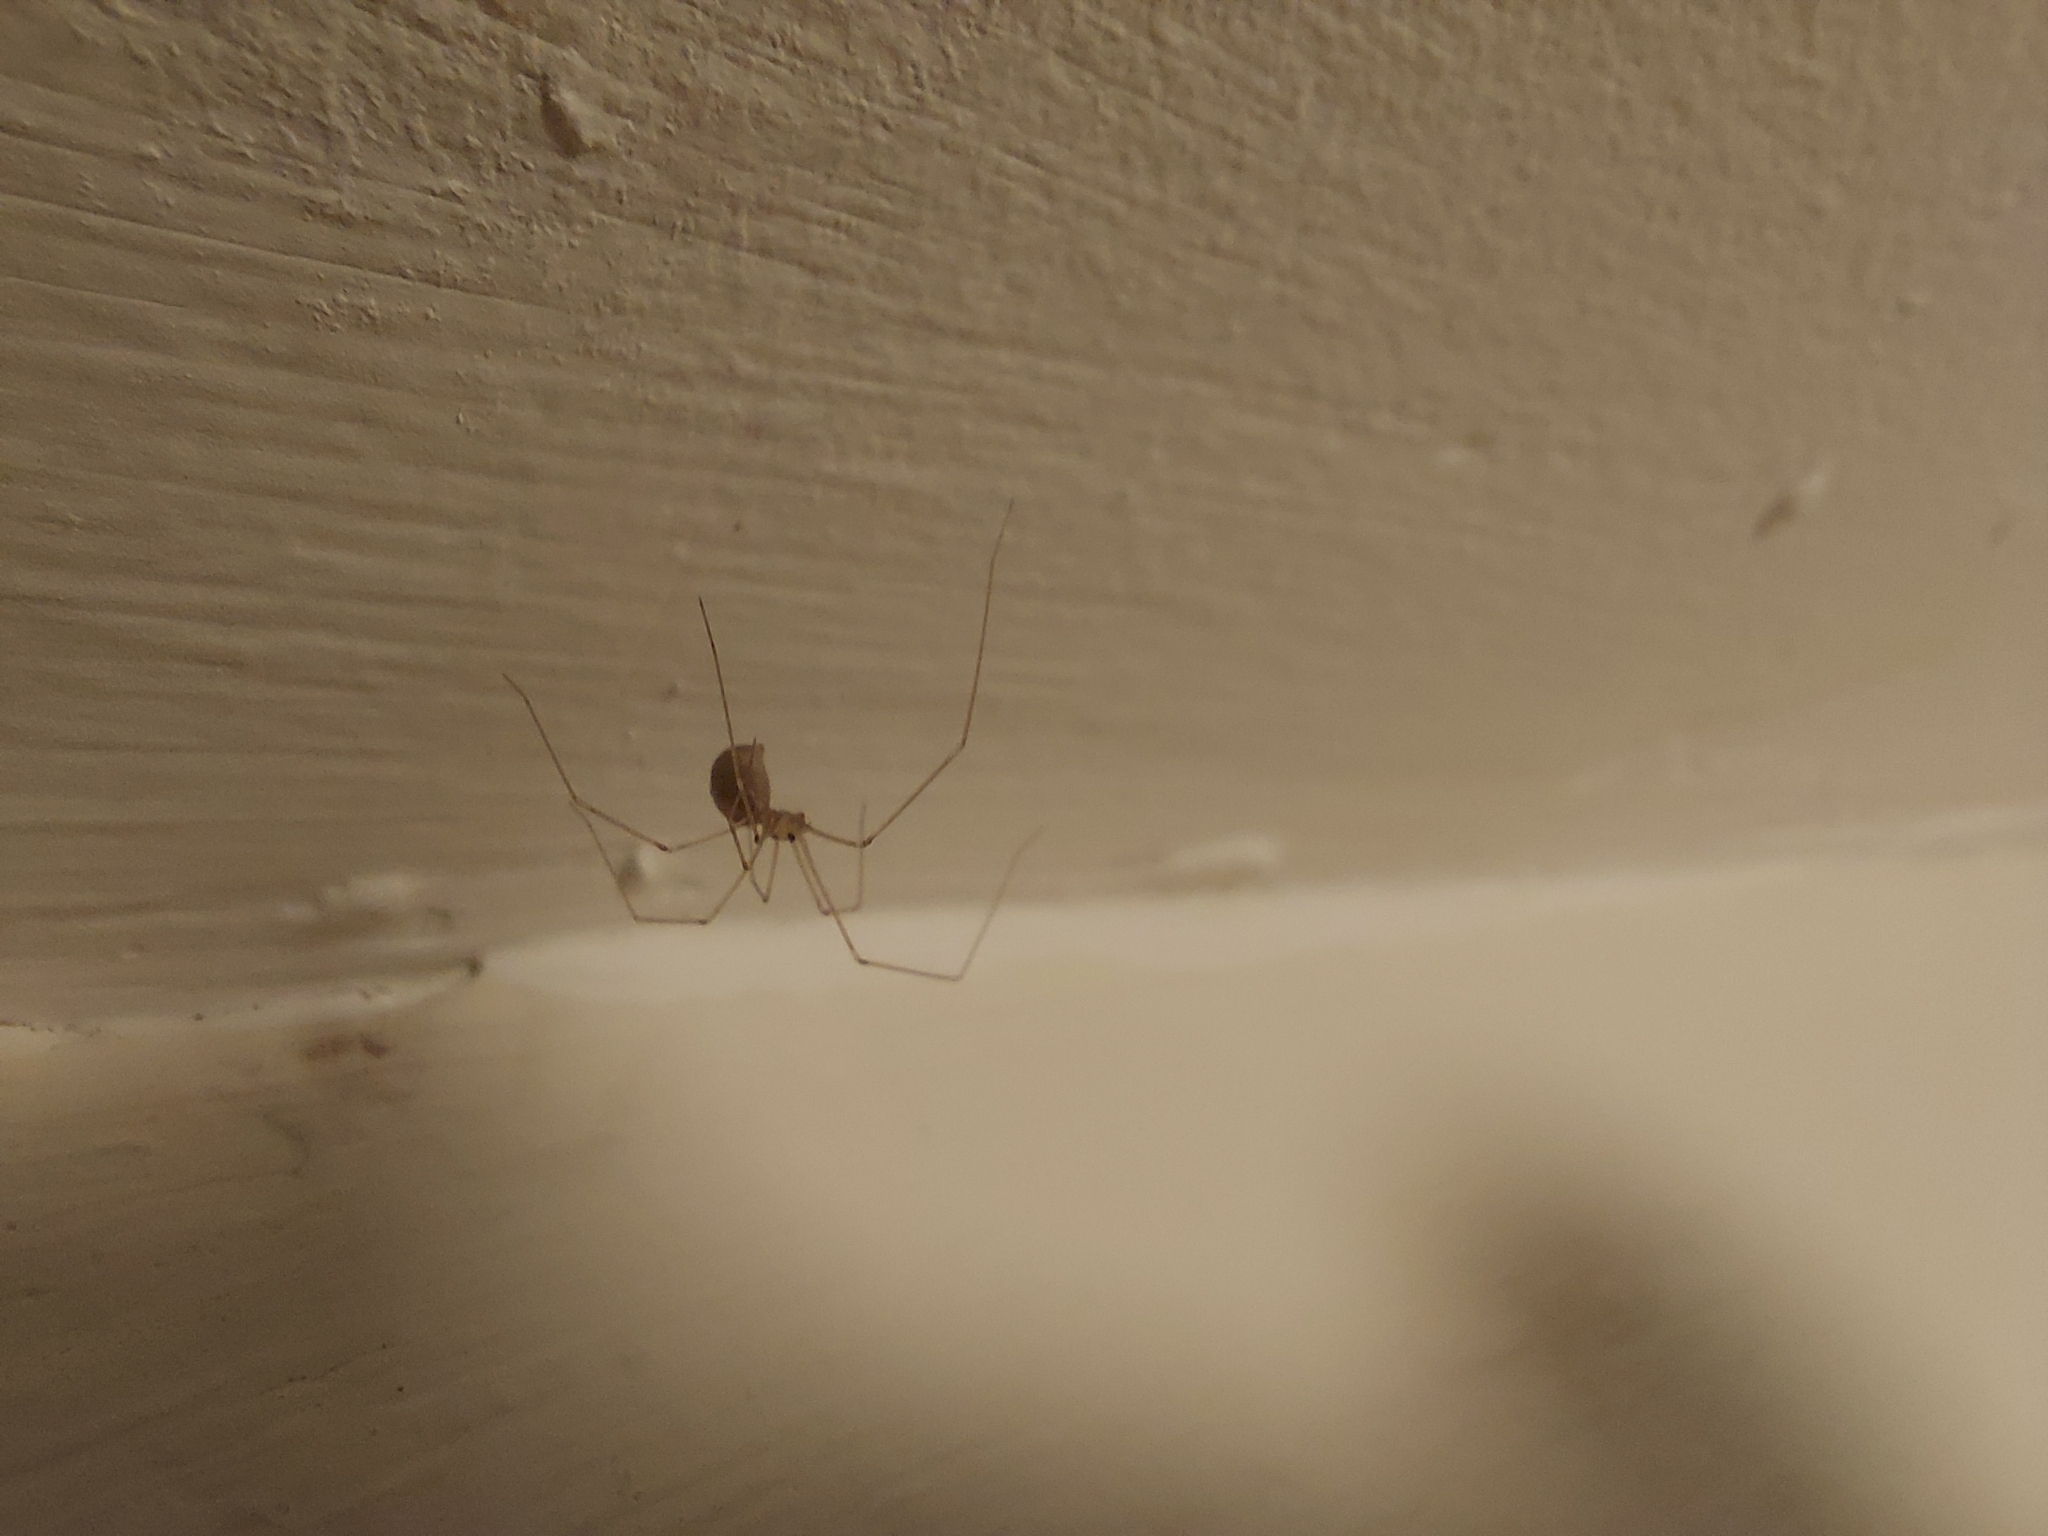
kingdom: Animalia
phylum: Arthropoda
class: Arachnida
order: Araneae
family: Pholcidae
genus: Pholcus
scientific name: Pholcus phalangioides
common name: Longbodied cellar spider
